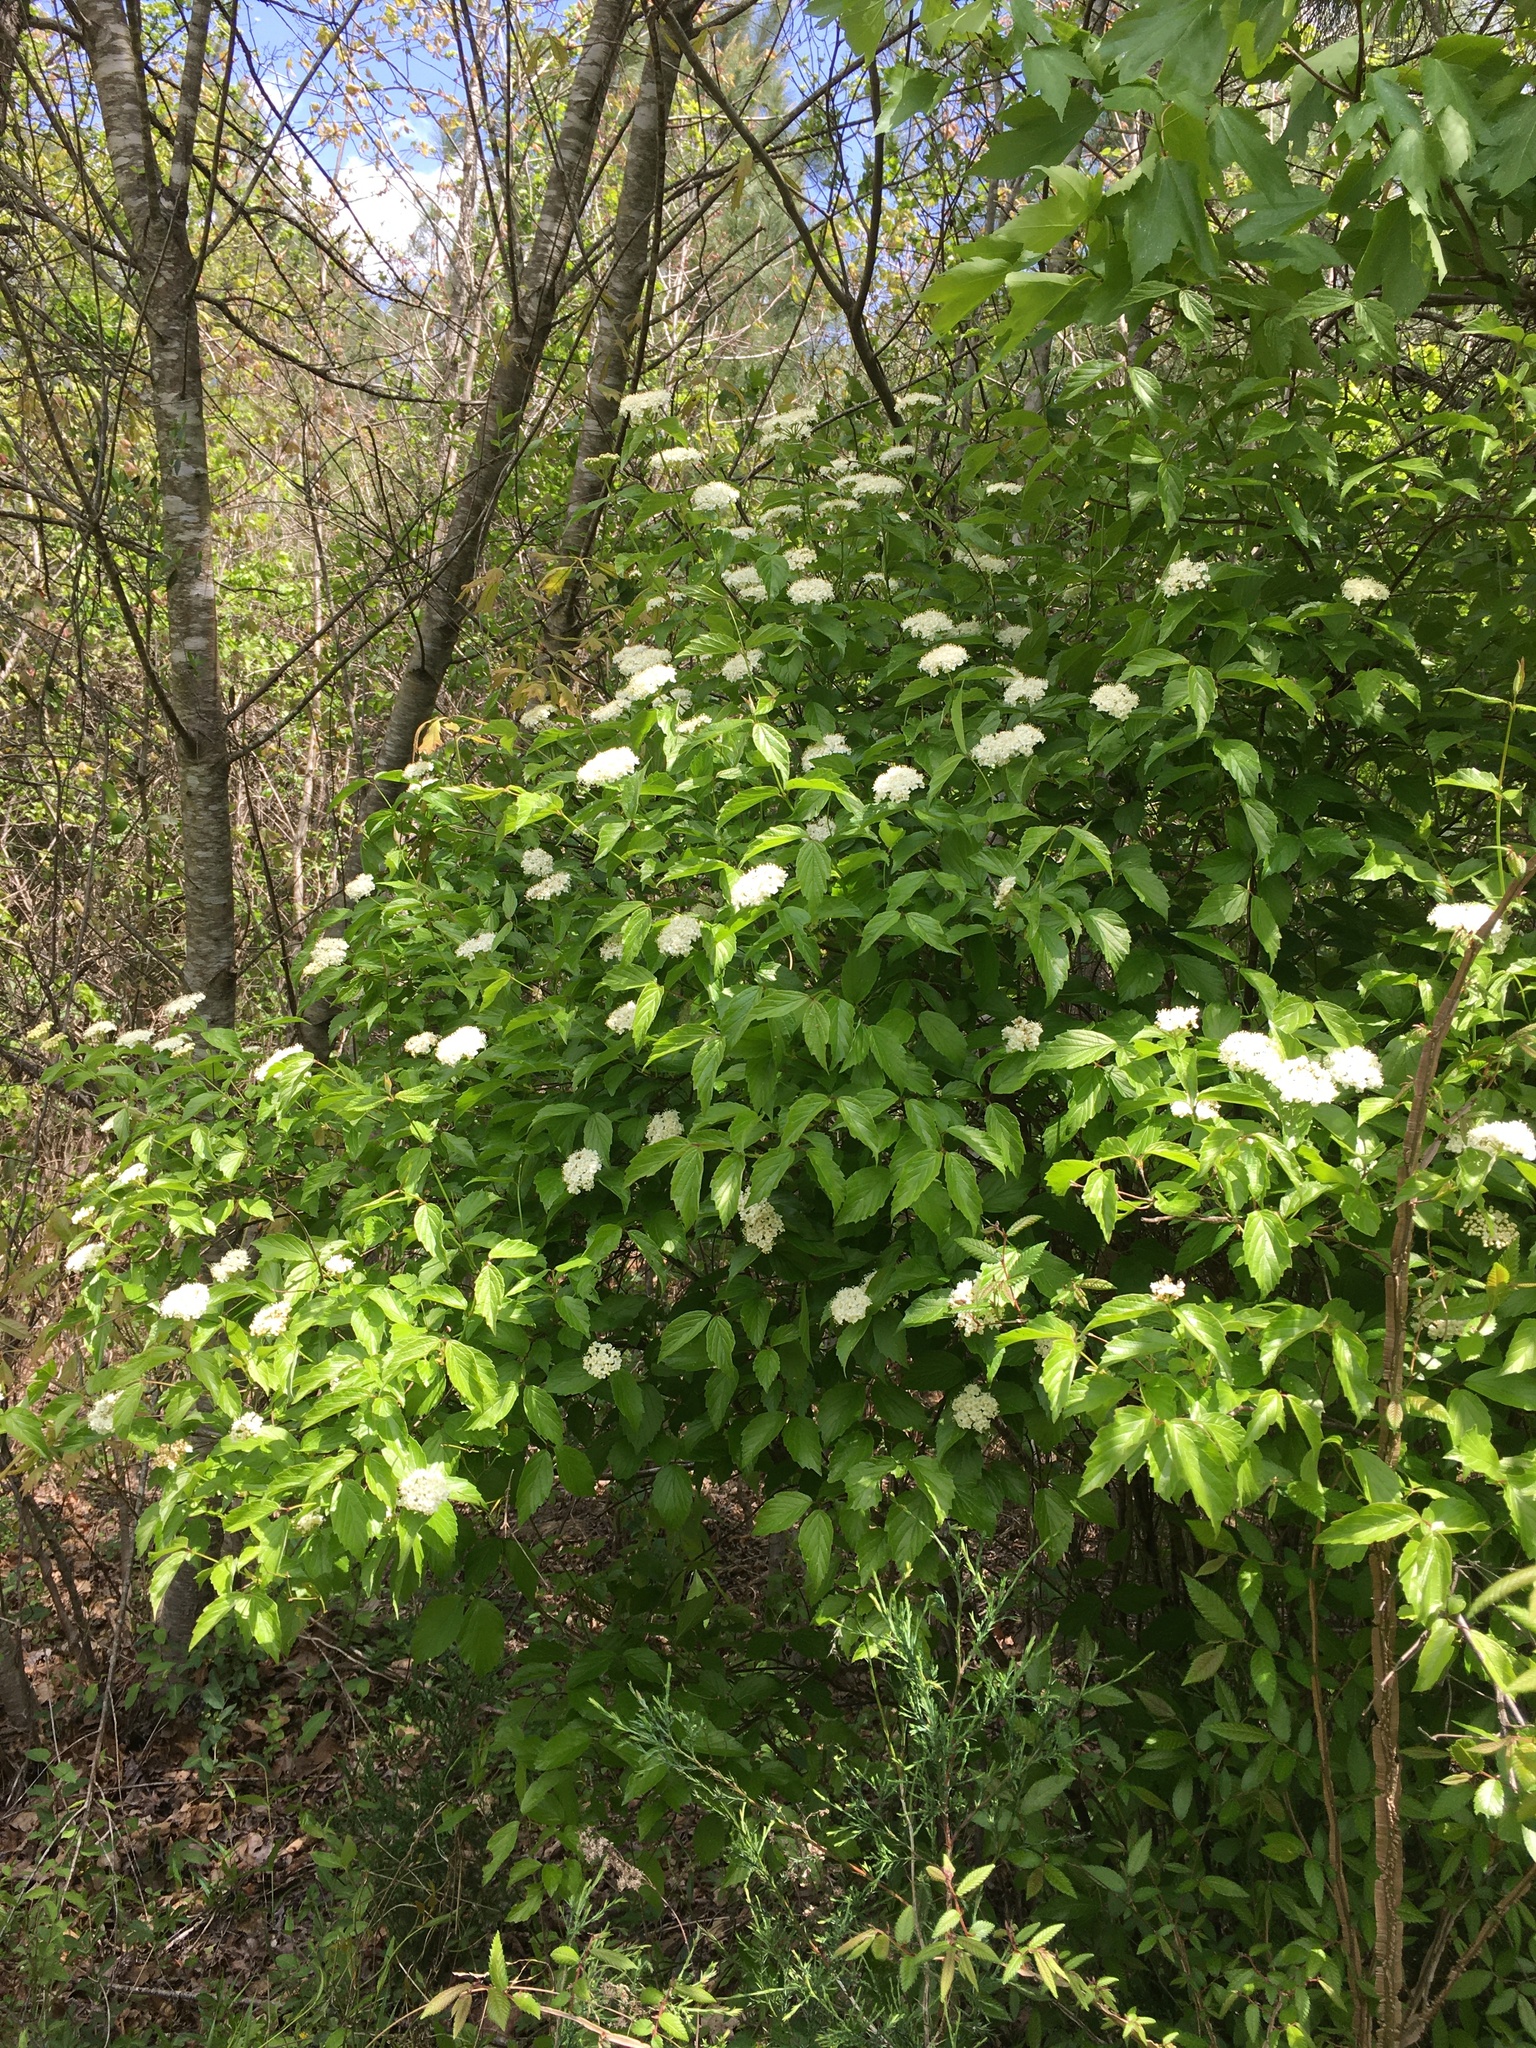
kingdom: Plantae
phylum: Tracheophyta
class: Magnoliopsida
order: Dipsacales
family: Viburnaceae
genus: Viburnum
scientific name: Viburnum rafinesqueanum
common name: Downy arrow-wood
